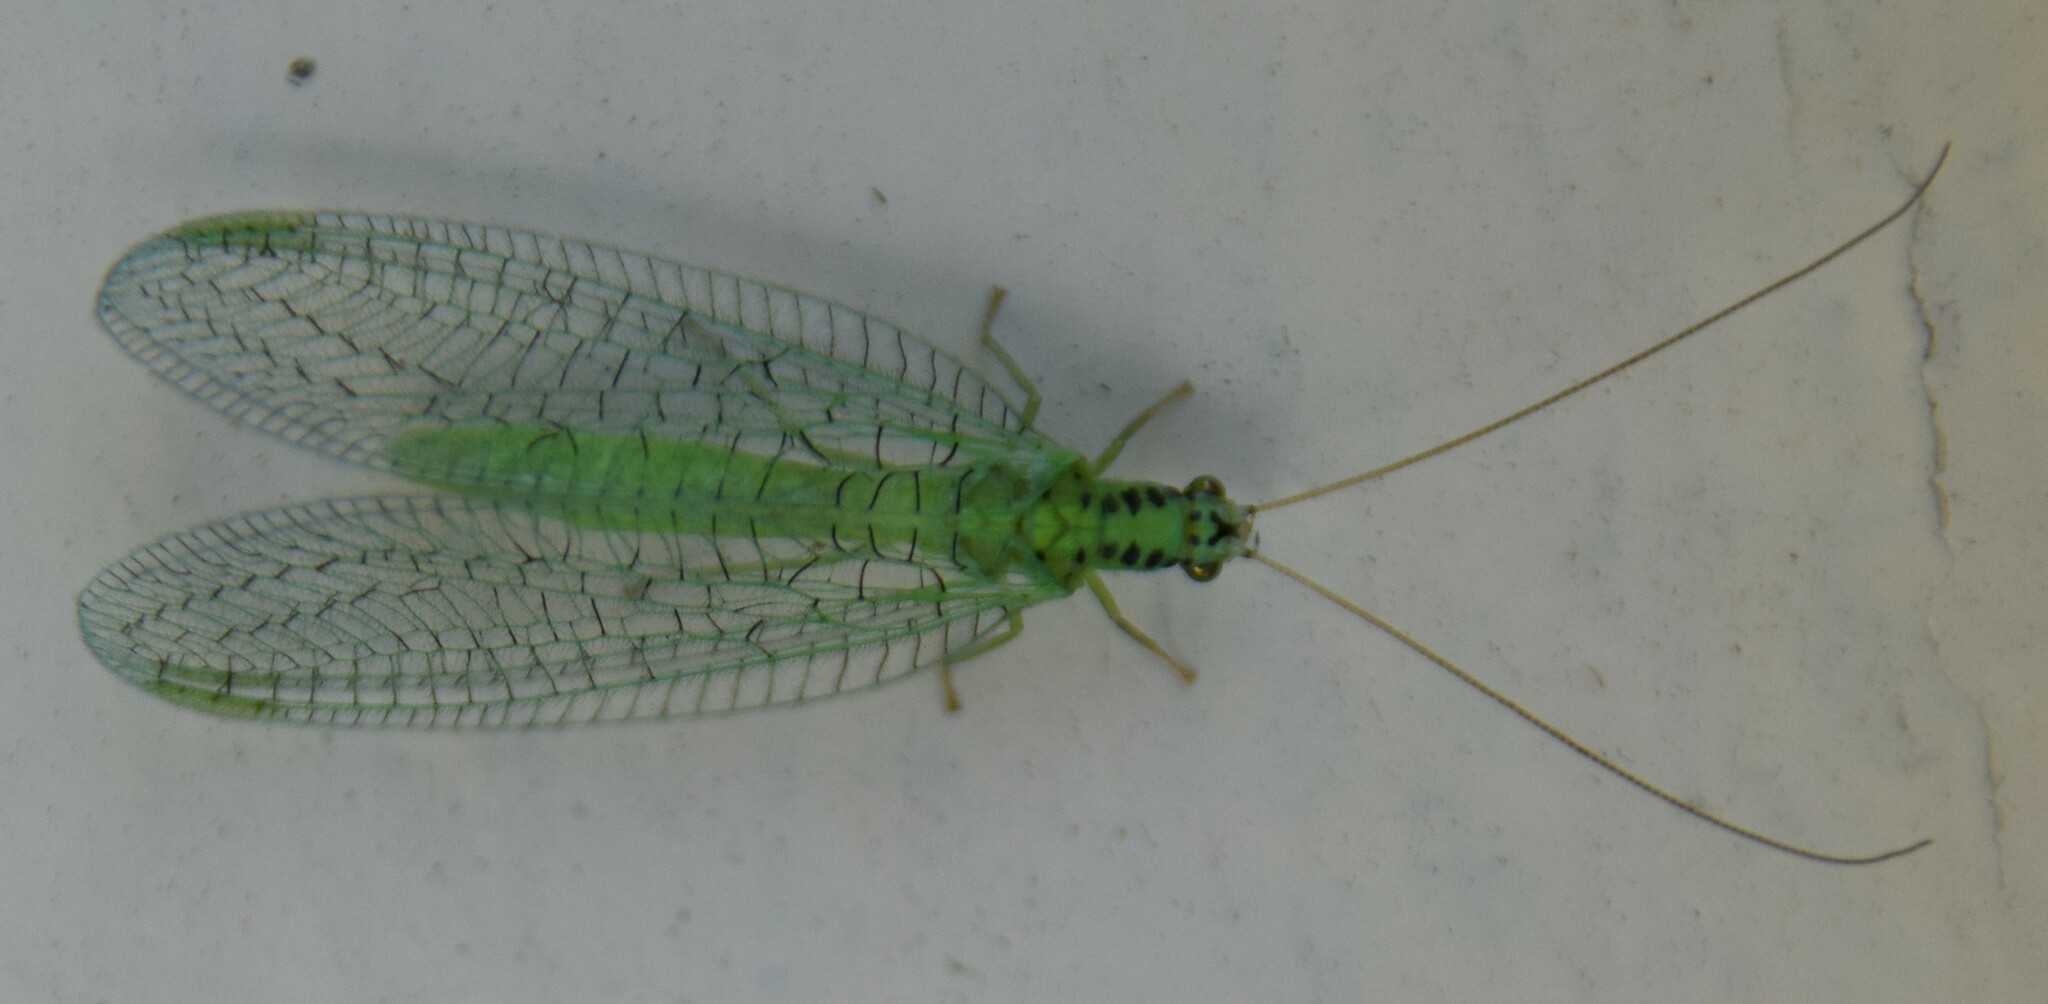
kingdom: Animalia
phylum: Arthropoda
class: Insecta
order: Neuroptera
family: Chrysopidae
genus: Chrysopa
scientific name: Chrysopa chi
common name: X-marked green lacewing
